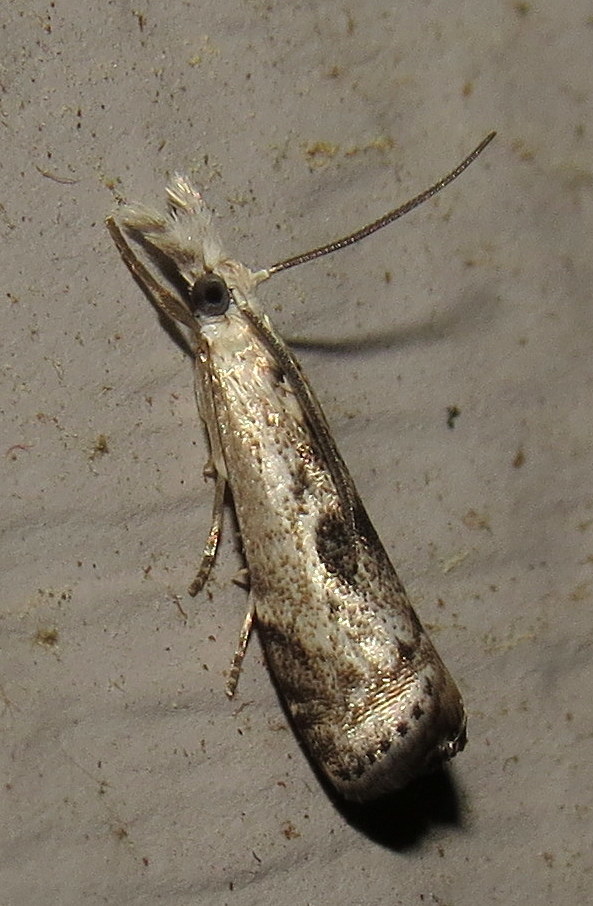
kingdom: Animalia
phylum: Arthropoda
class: Insecta
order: Lepidoptera
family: Crambidae
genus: Microcrambus
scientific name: Microcrambus immunellus
